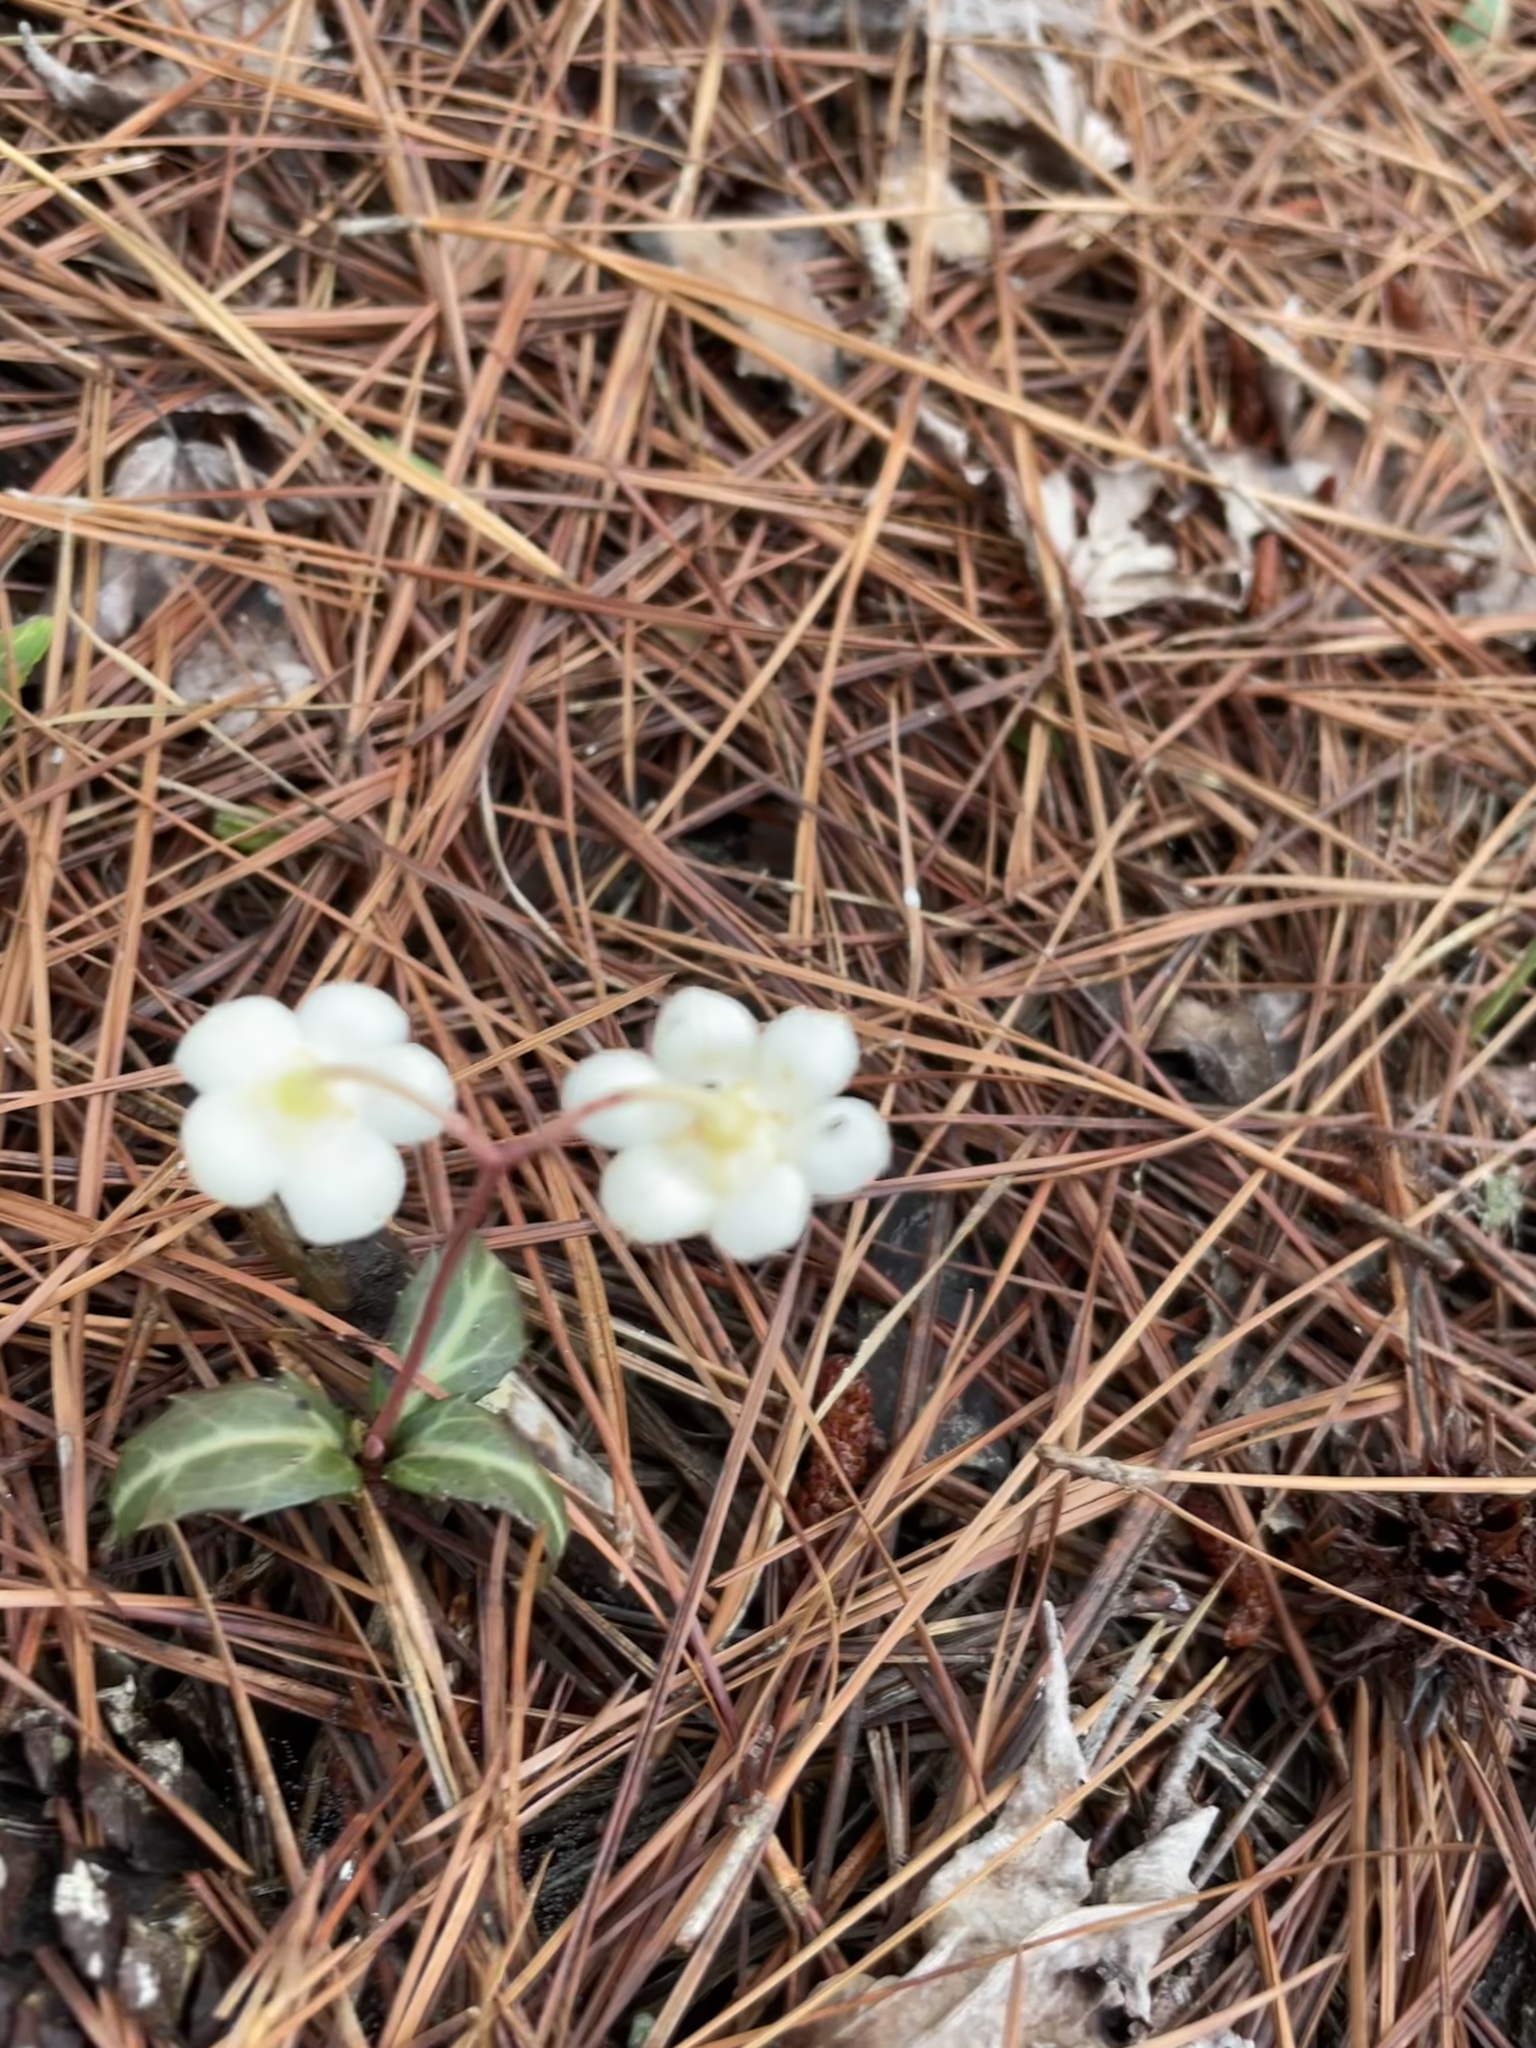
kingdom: Plantae
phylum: Tracheophyta
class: Magnoliopsida
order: Ericales
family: Ericaceae
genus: Chimaphila
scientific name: Chimaphila maculata
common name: Spotted pipsissewa
